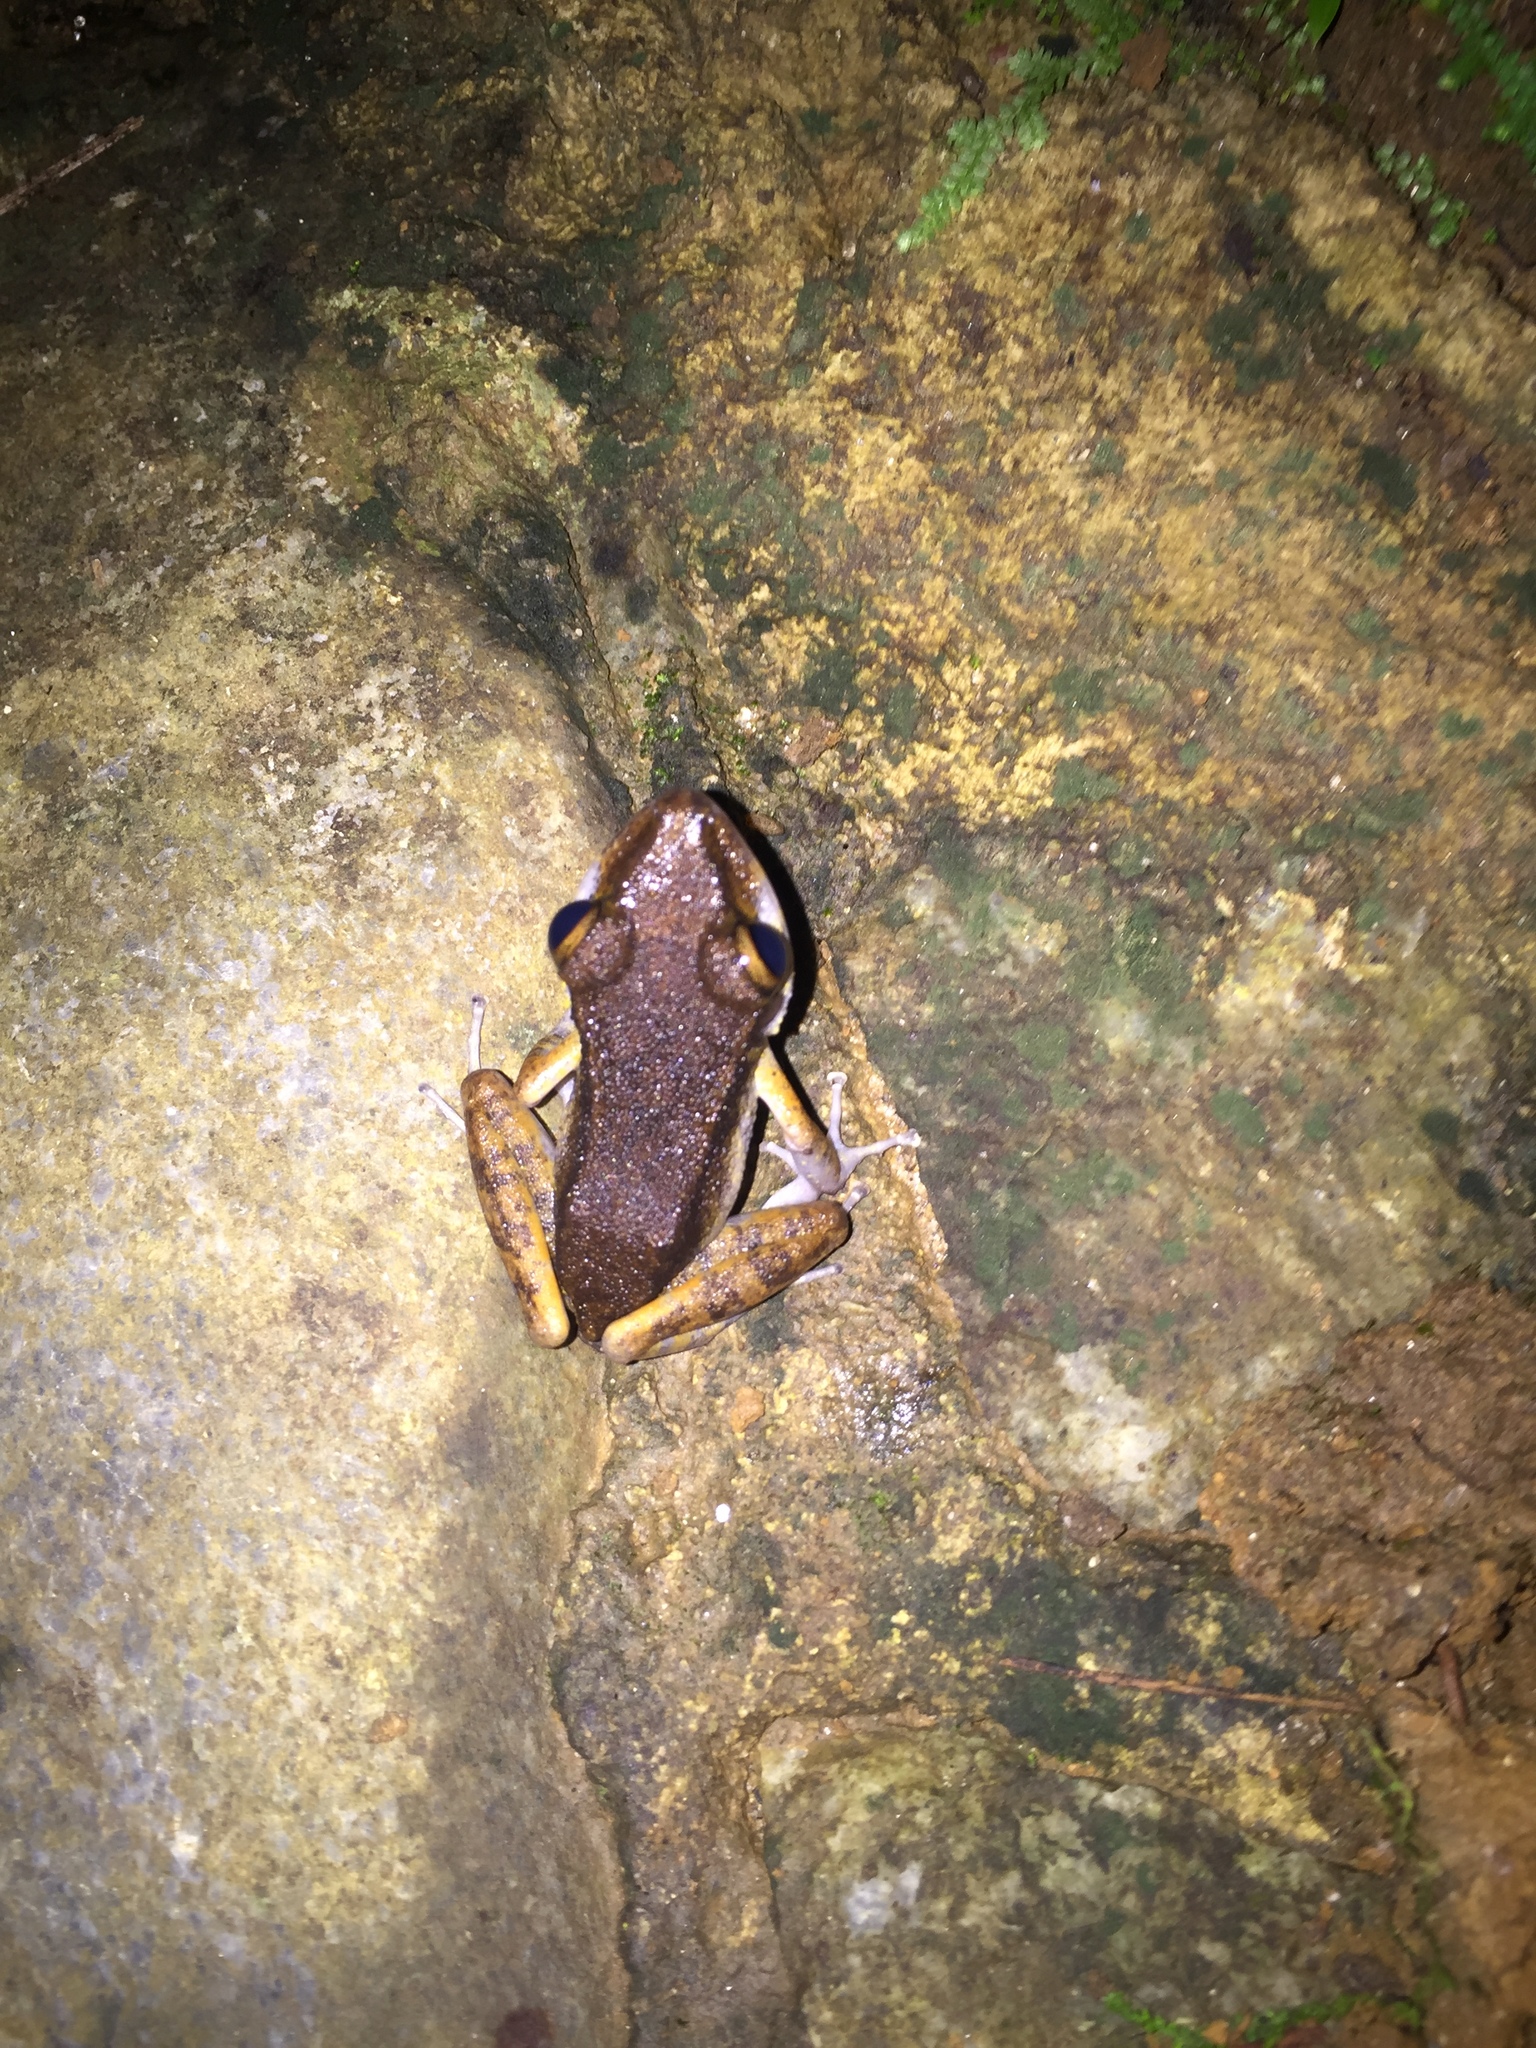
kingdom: Animalia
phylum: Chordata
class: Amphibia
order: Anura
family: Craugastoridae
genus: Pristimantis
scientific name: Pristimantis gaigei
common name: Fort randolph robber frog
